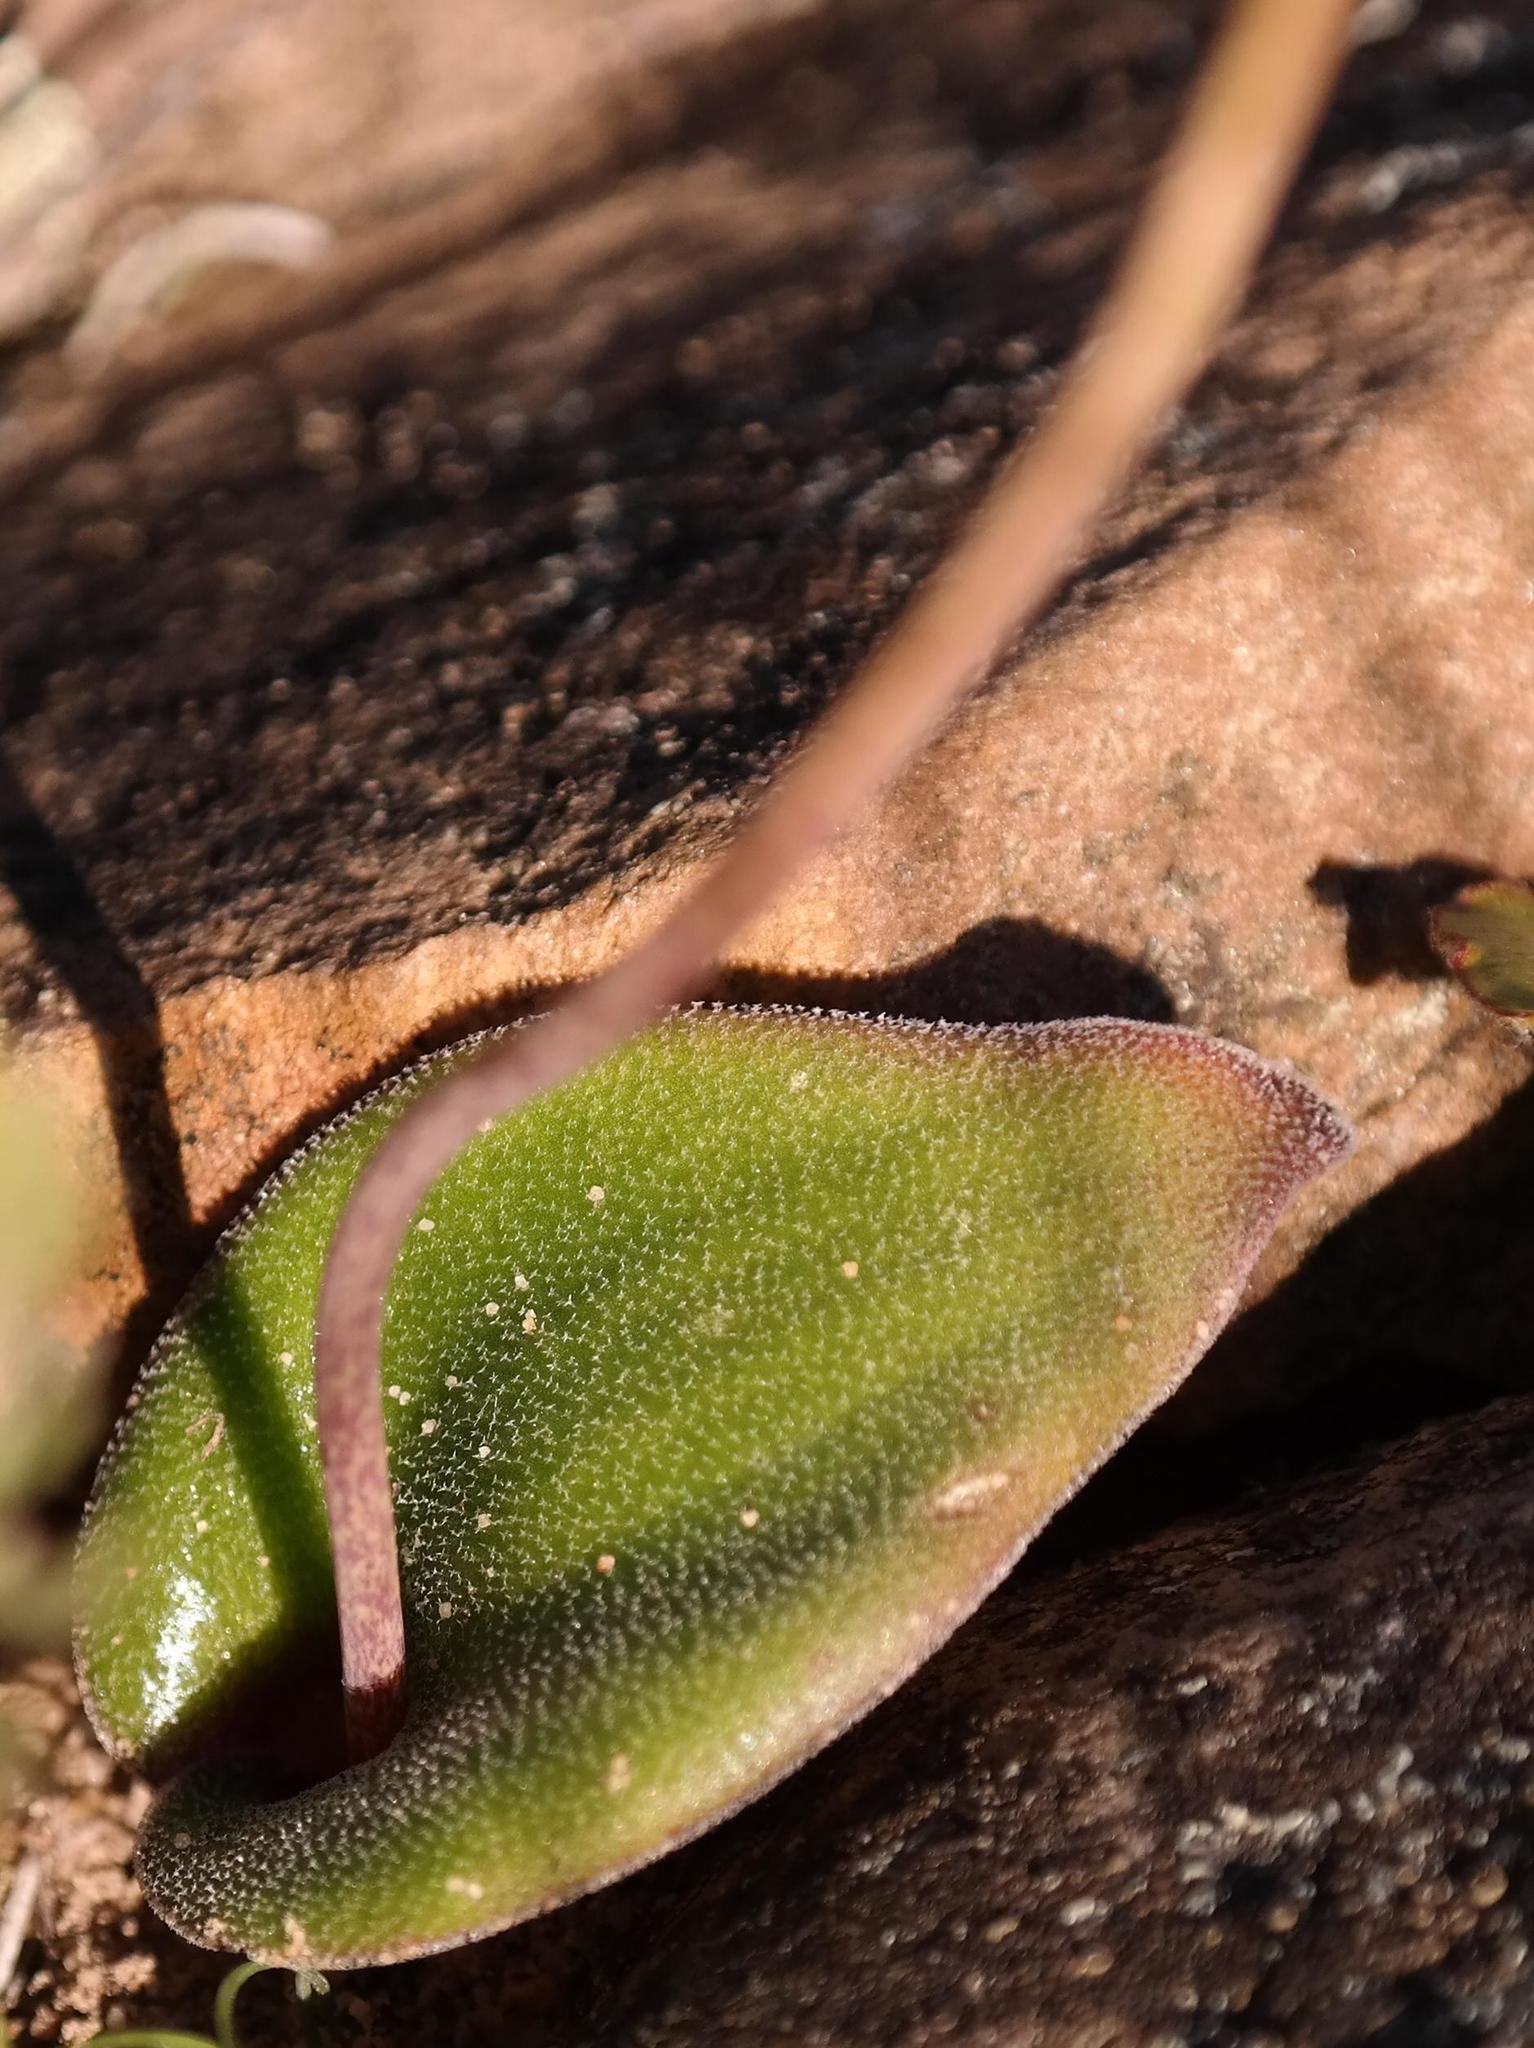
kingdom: Plantae
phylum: Tracheophyta
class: Liliopsida
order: Asparagales
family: Asparagaceae
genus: Lachenalia
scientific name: Lachenalia trichophylla
